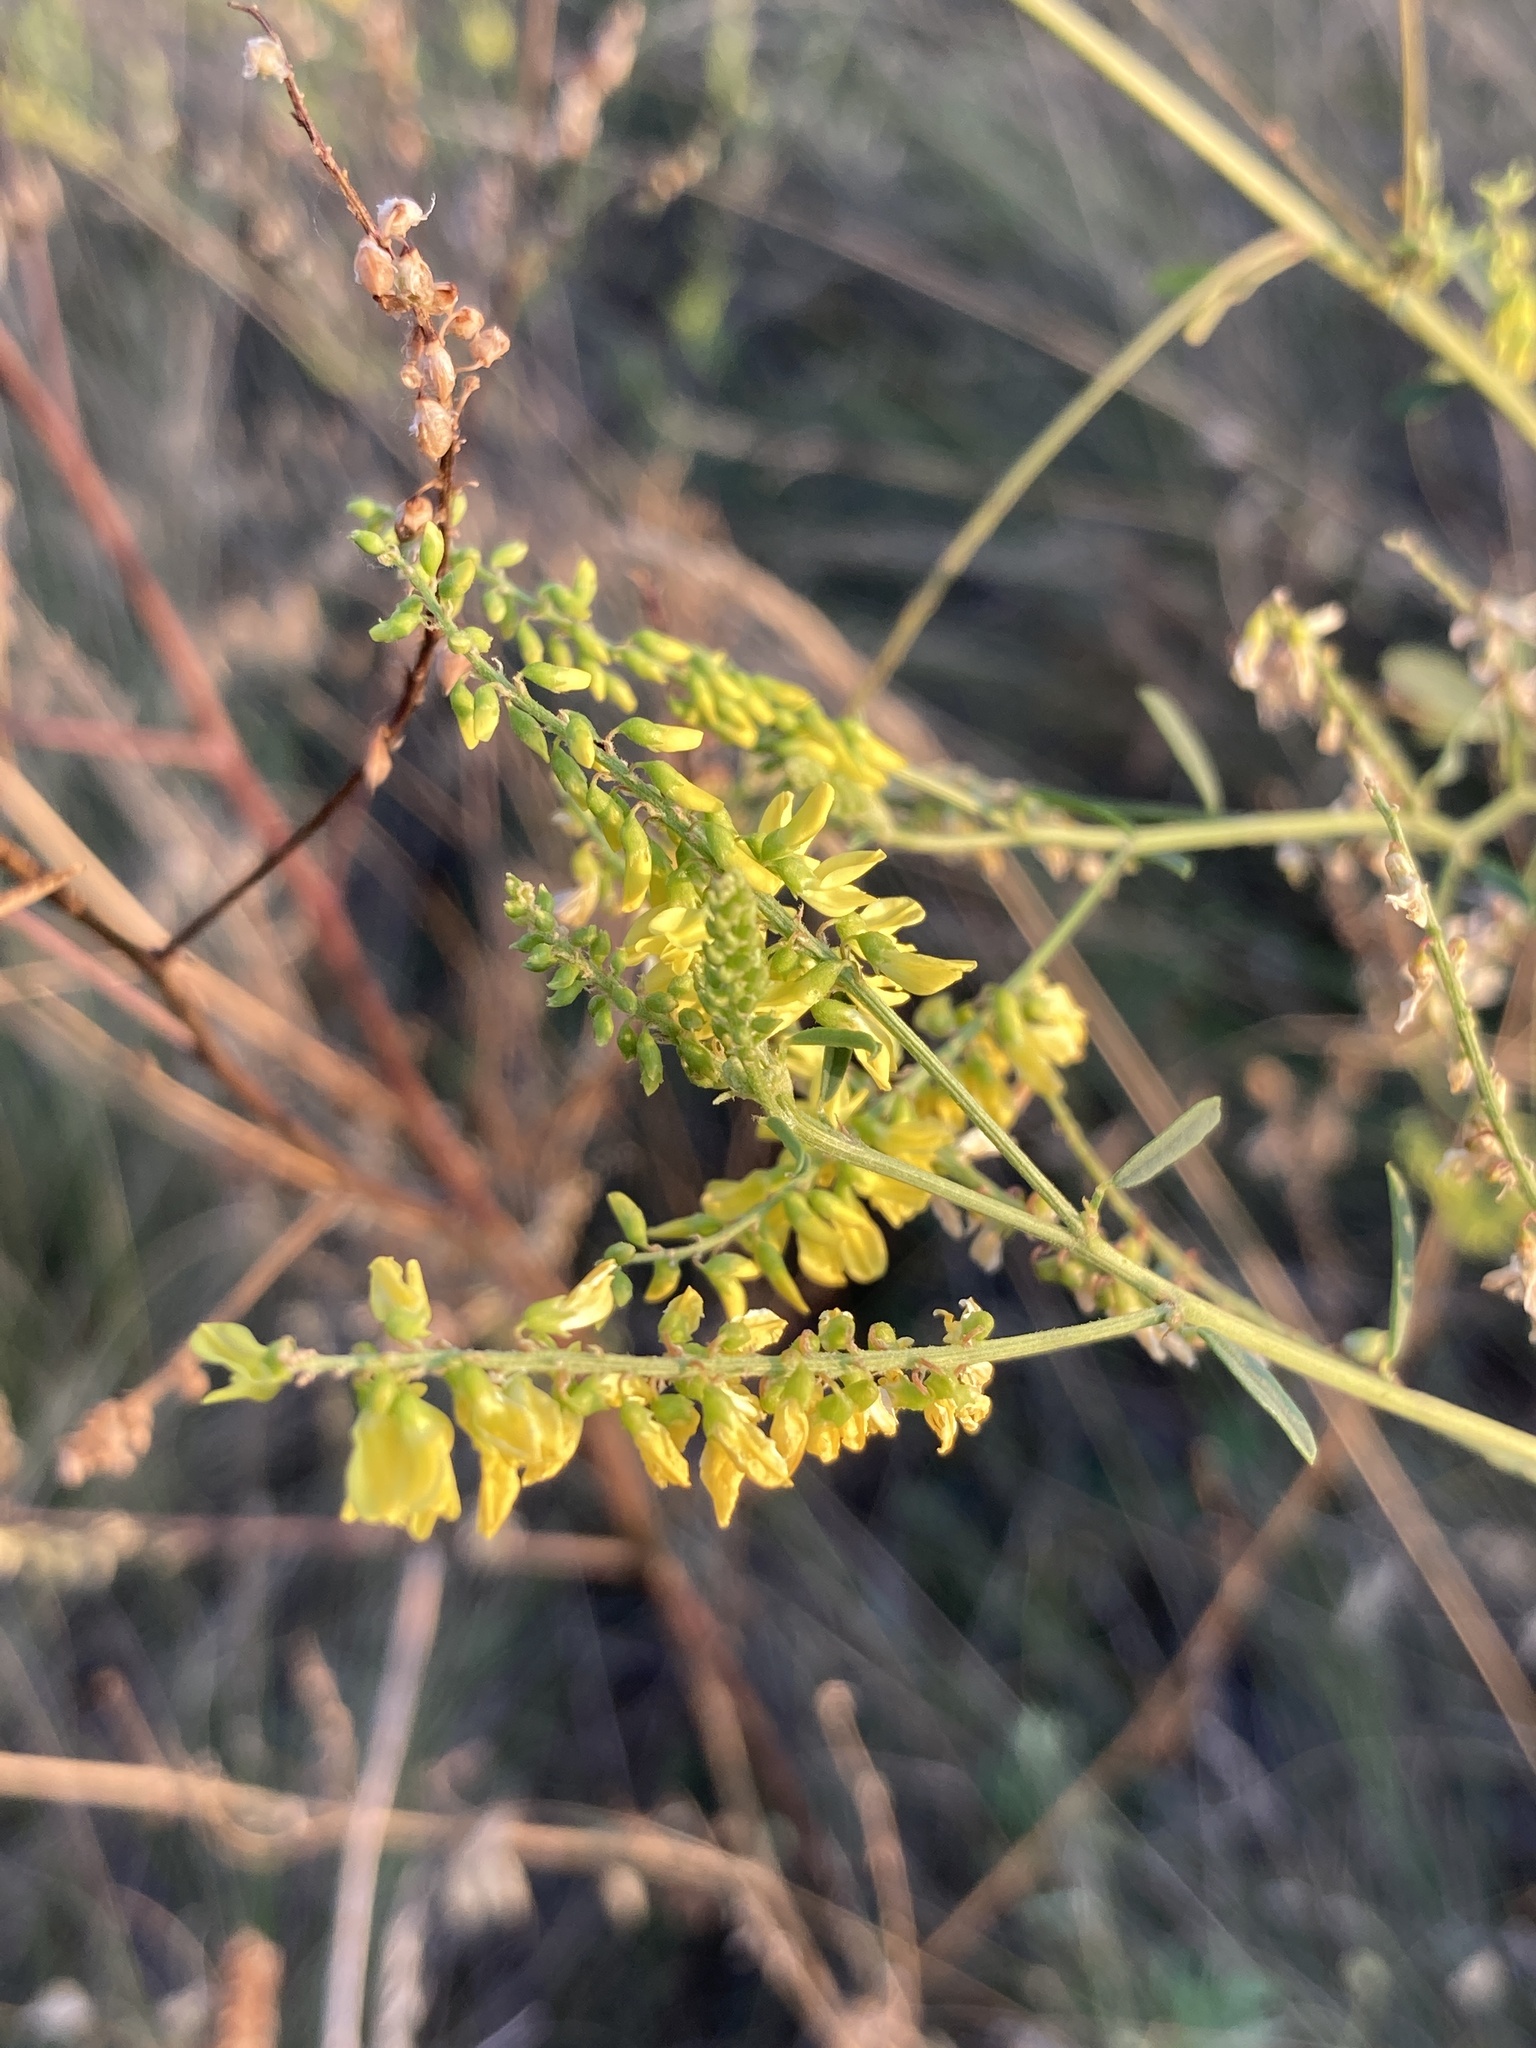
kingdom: Plantae
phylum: Tracheophyta
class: Magnoliopsida
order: Fabales
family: Fabaceae
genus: Melilotus
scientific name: Melilotus officinalis
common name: Sweetclover
